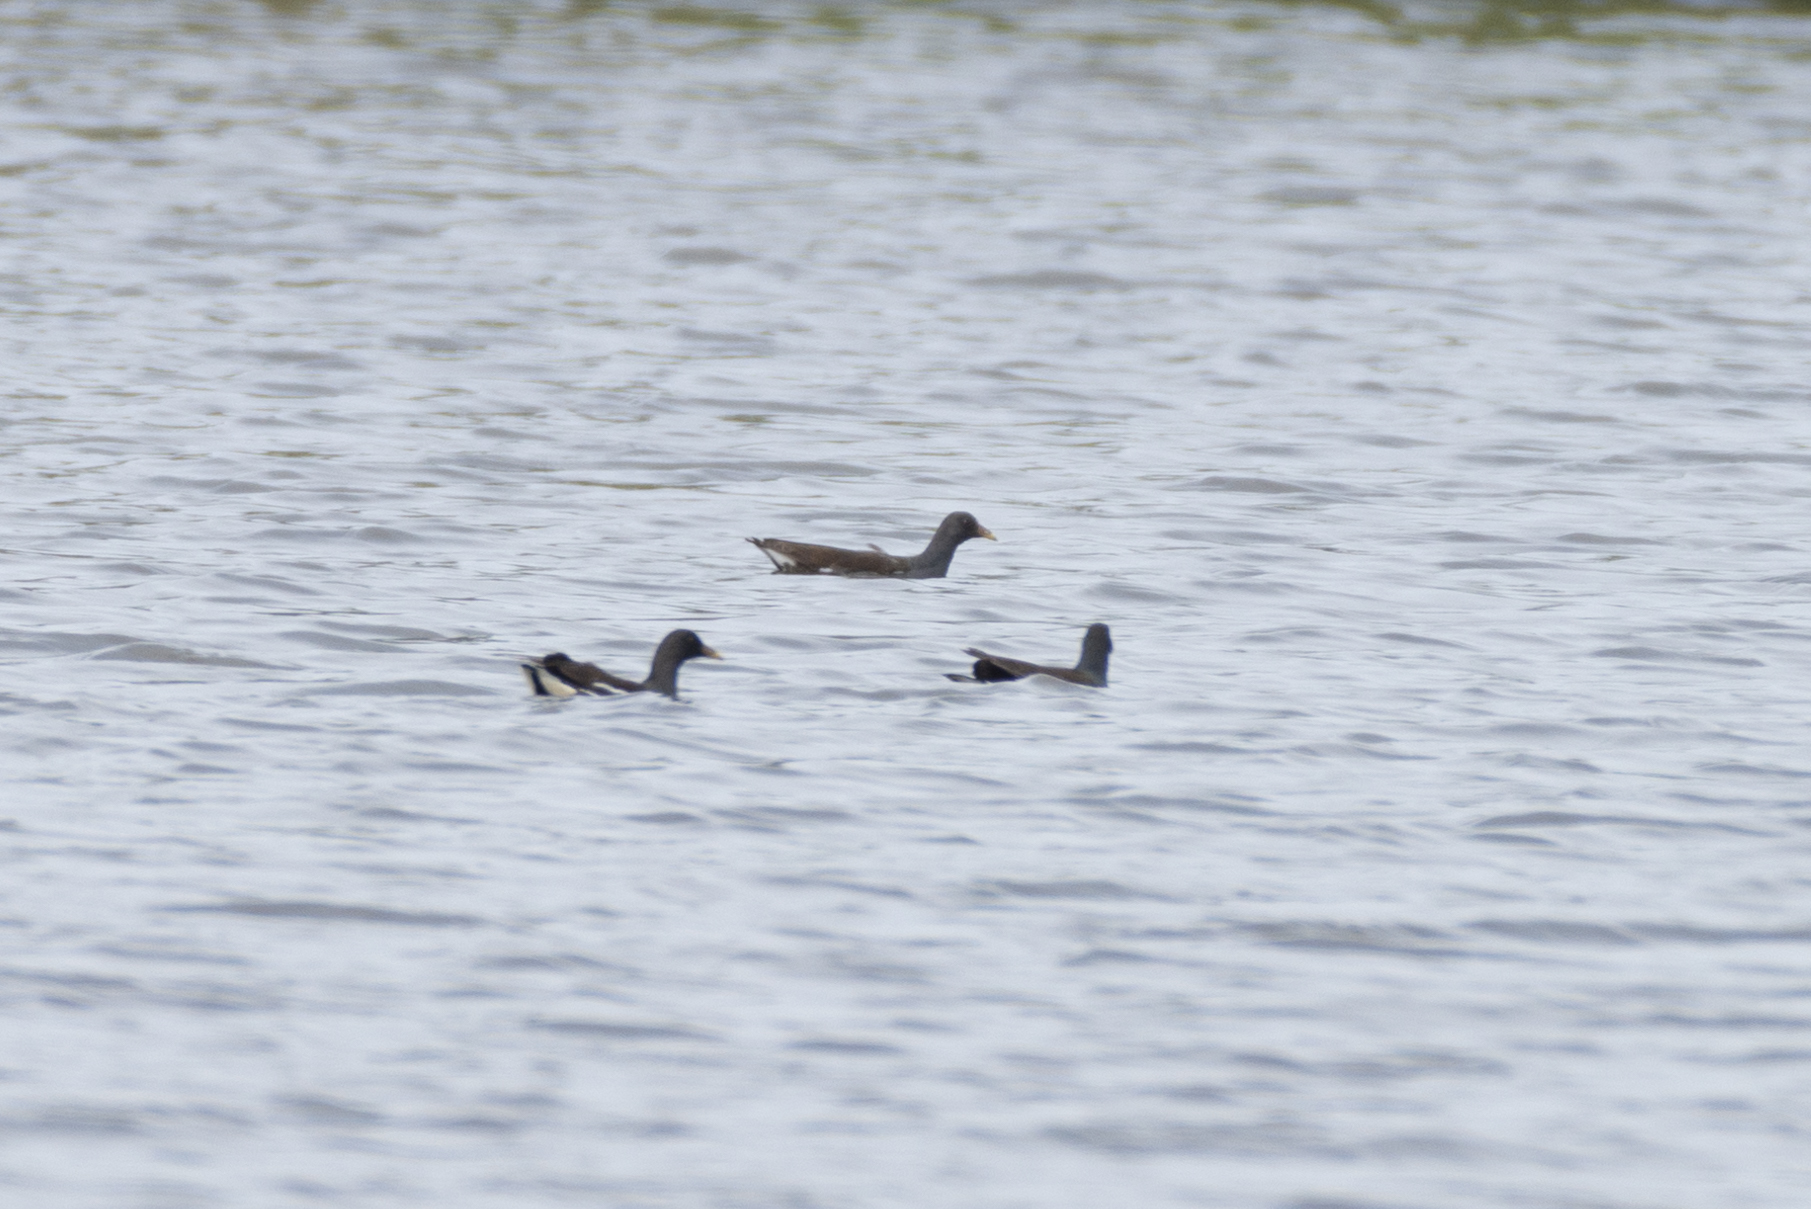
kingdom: Animalia
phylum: Chordata
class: Aves
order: Gruiformes
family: Rallidae
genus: Gallinula
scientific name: Gallinula chloropus
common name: Common moorhen
